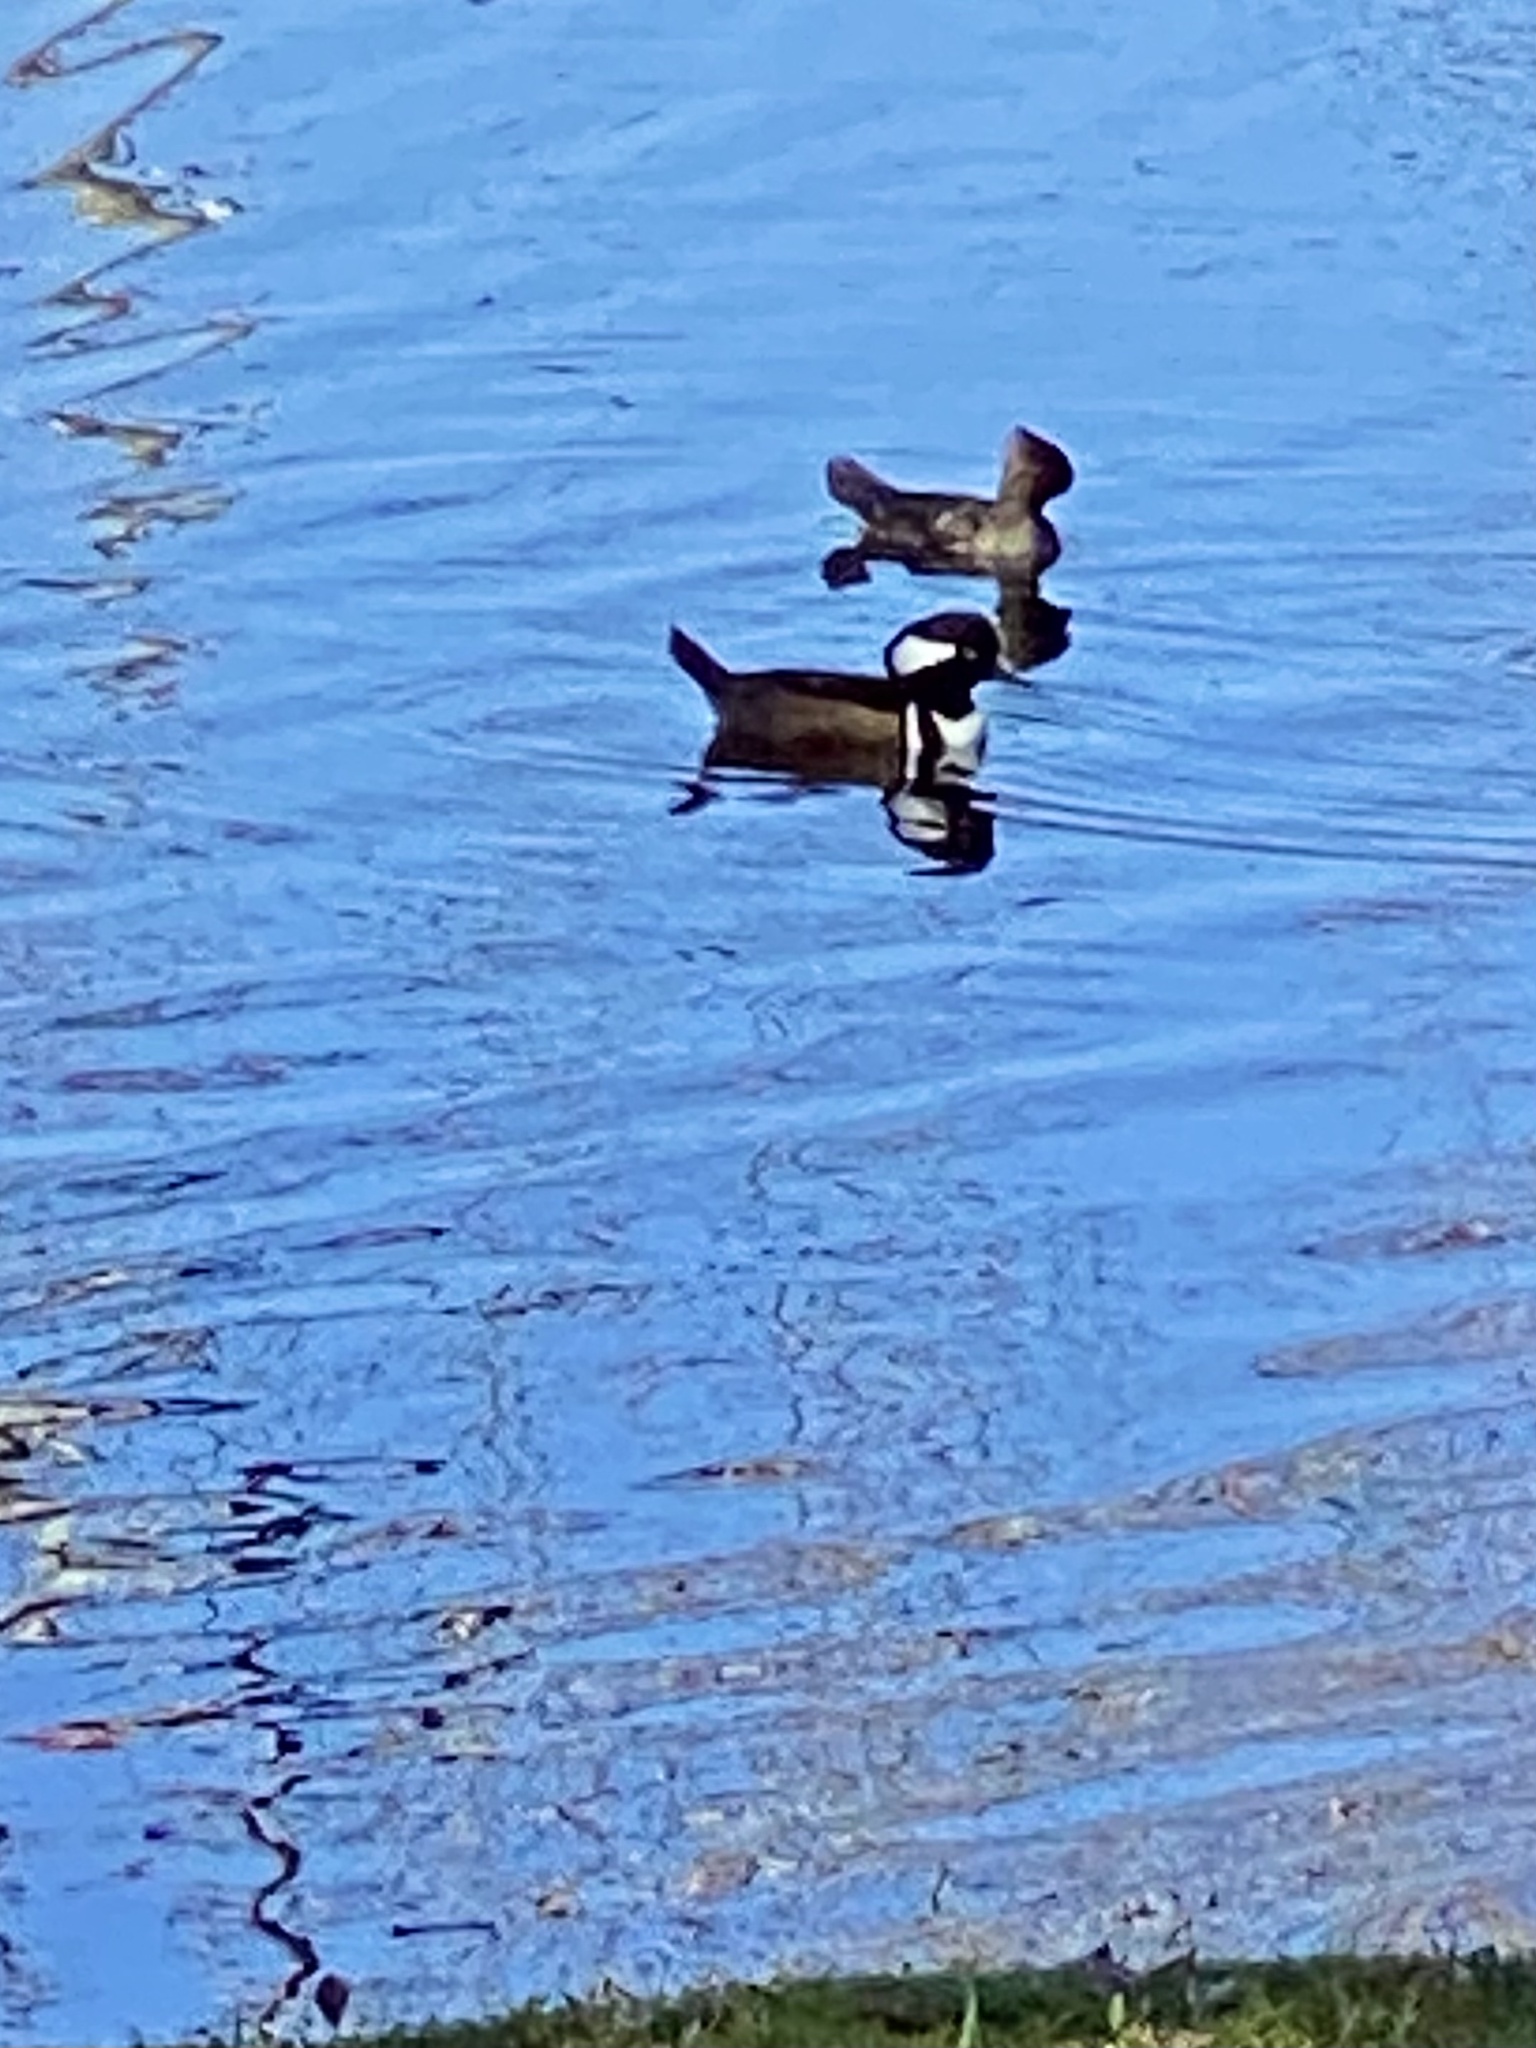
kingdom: Animalia
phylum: Chordata
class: Aves
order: Anseriformes
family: Anatidae
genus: Lophodytes
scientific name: Lophodytes cucullatus
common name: Hooded merganser
